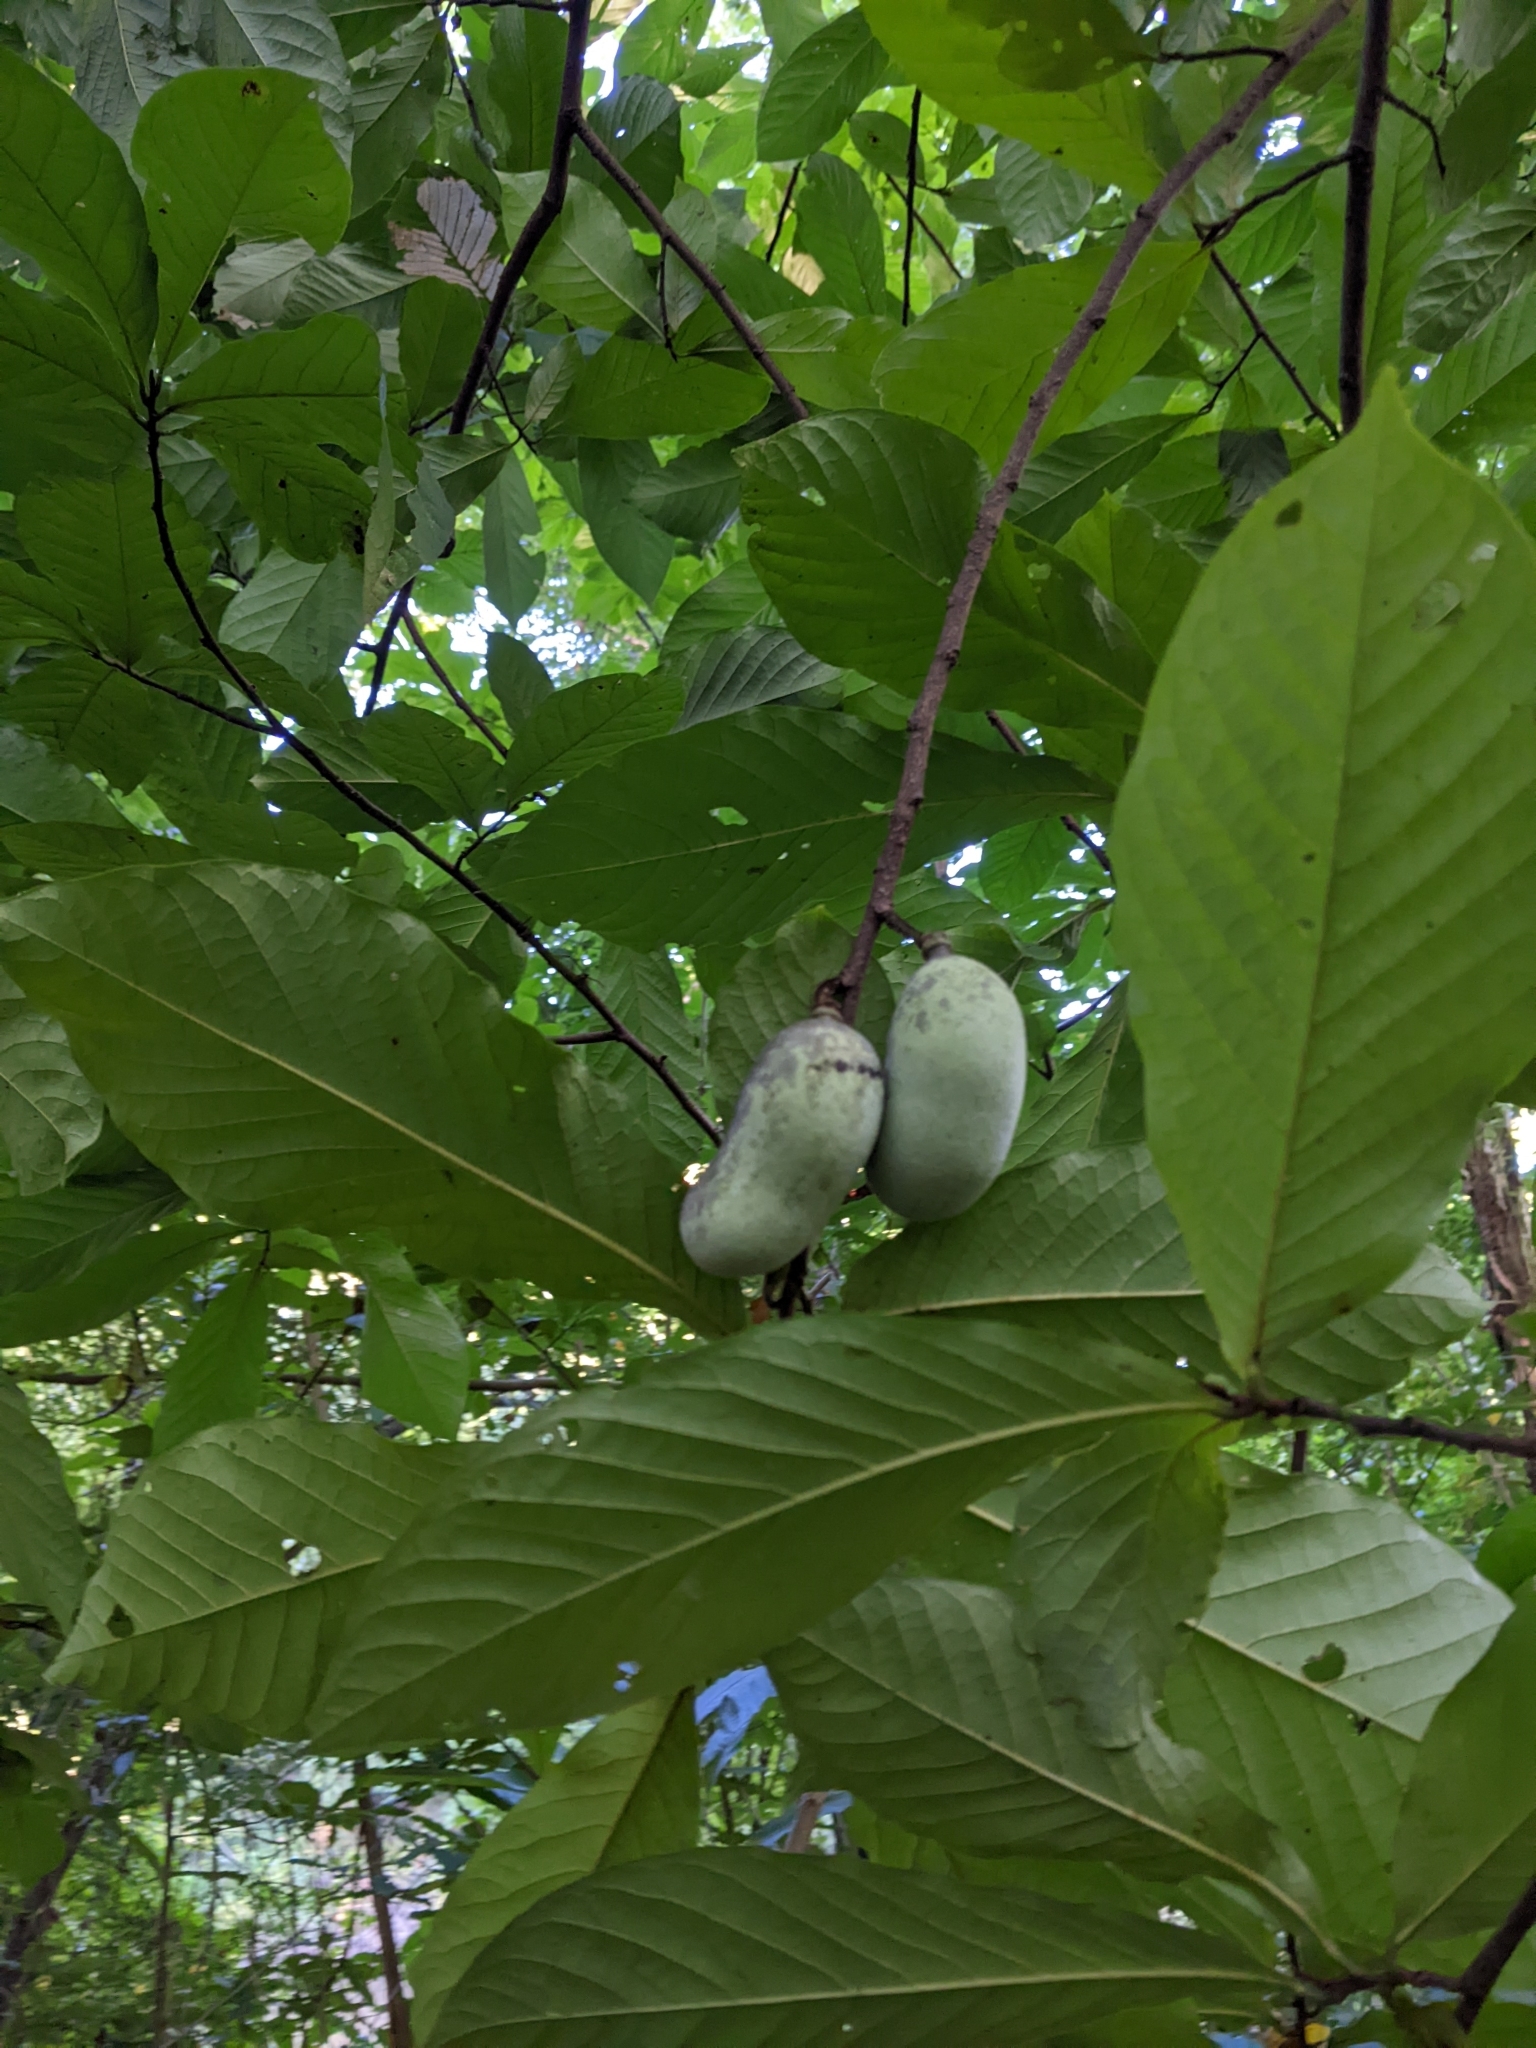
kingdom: Plantae
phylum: Tracheophyta
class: Magnoliopsida
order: Magnoliales
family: Annonaceae
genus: Asimina
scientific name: Asimina triloba
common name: Dog-banana
